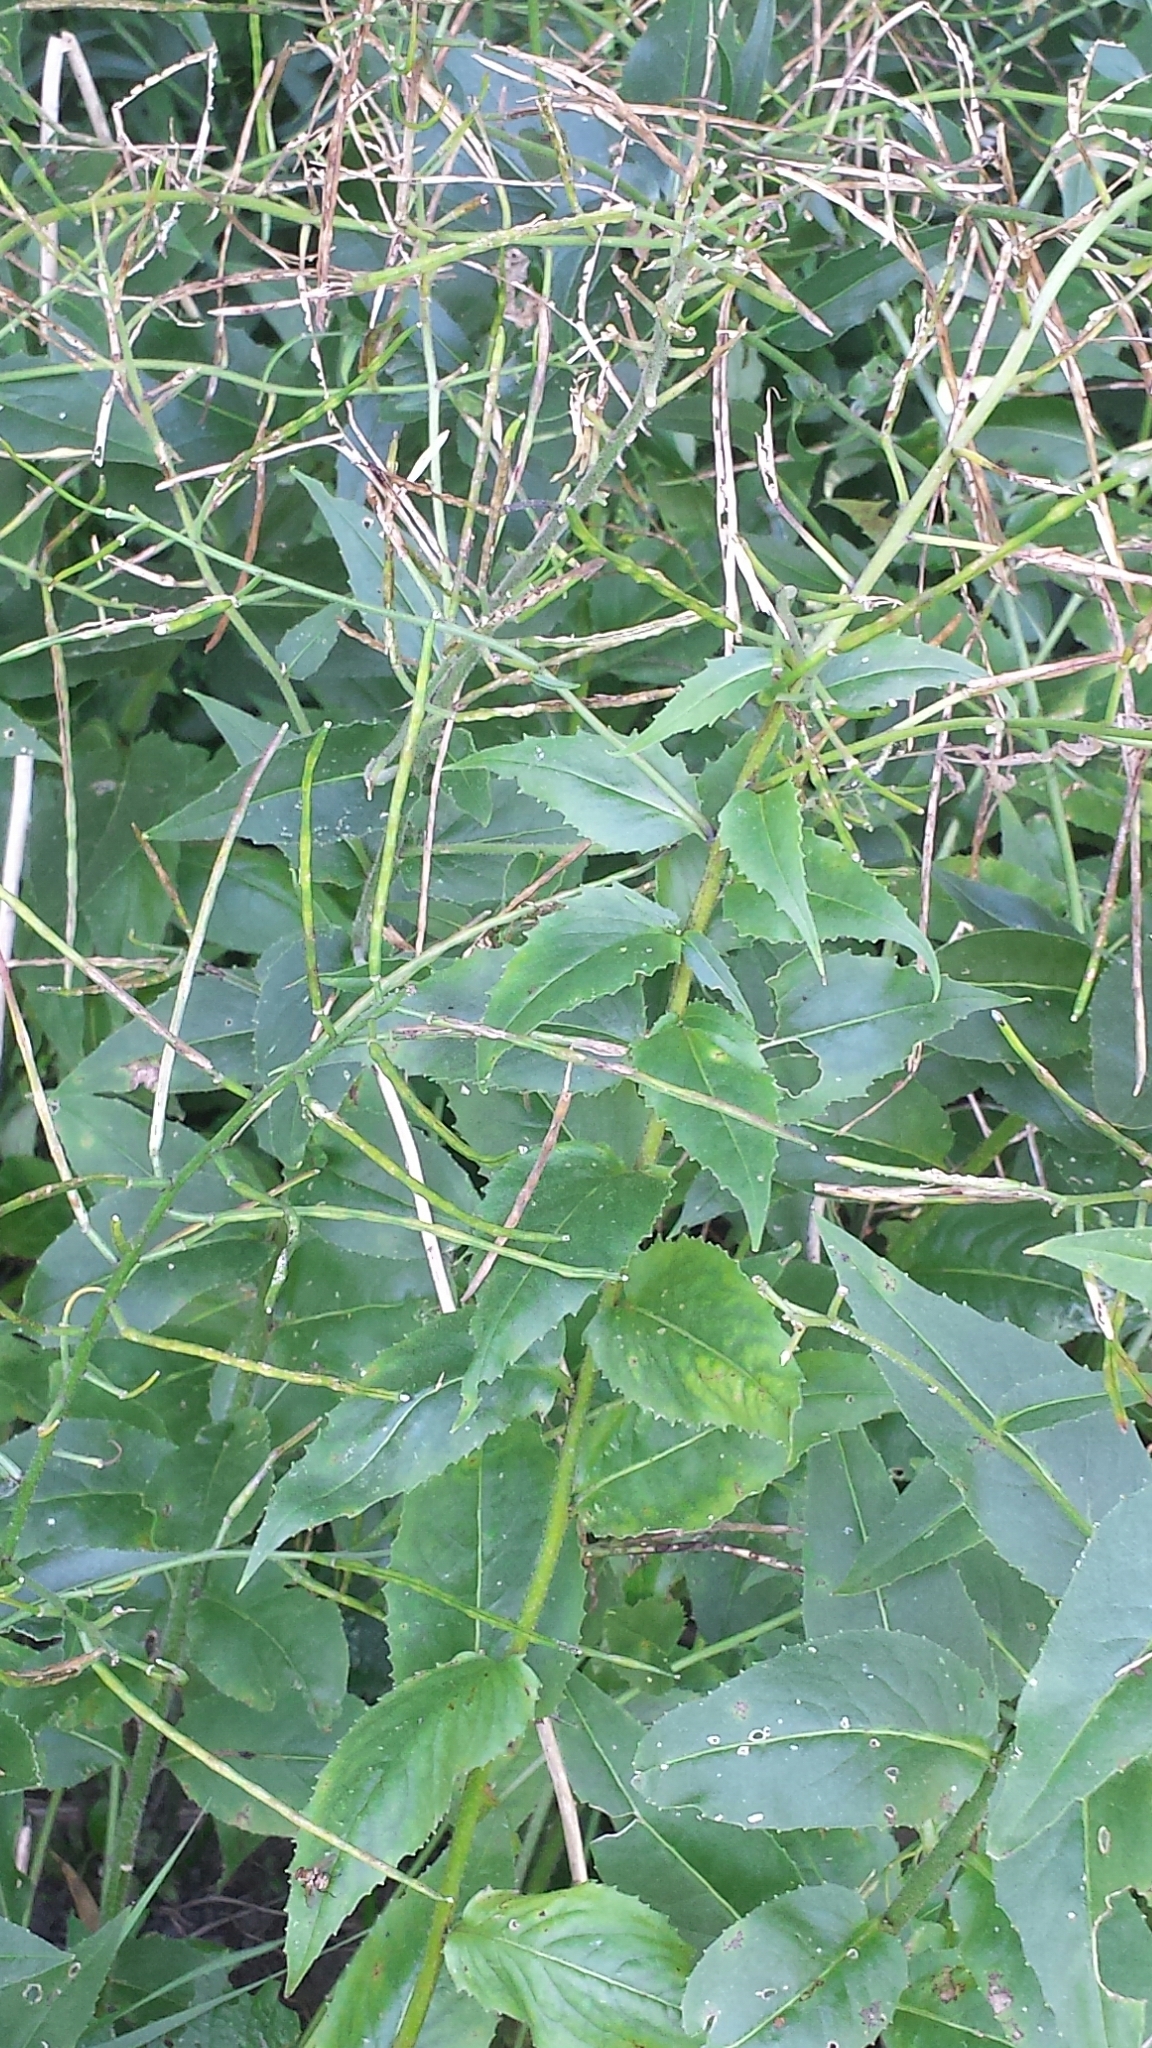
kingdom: Plantae
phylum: Tracheophyta
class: Magnoliopsida
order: Brassicales
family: Brassicaceae
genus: Hesperis
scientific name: Hesperis matronalis
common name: Dame's-violet
